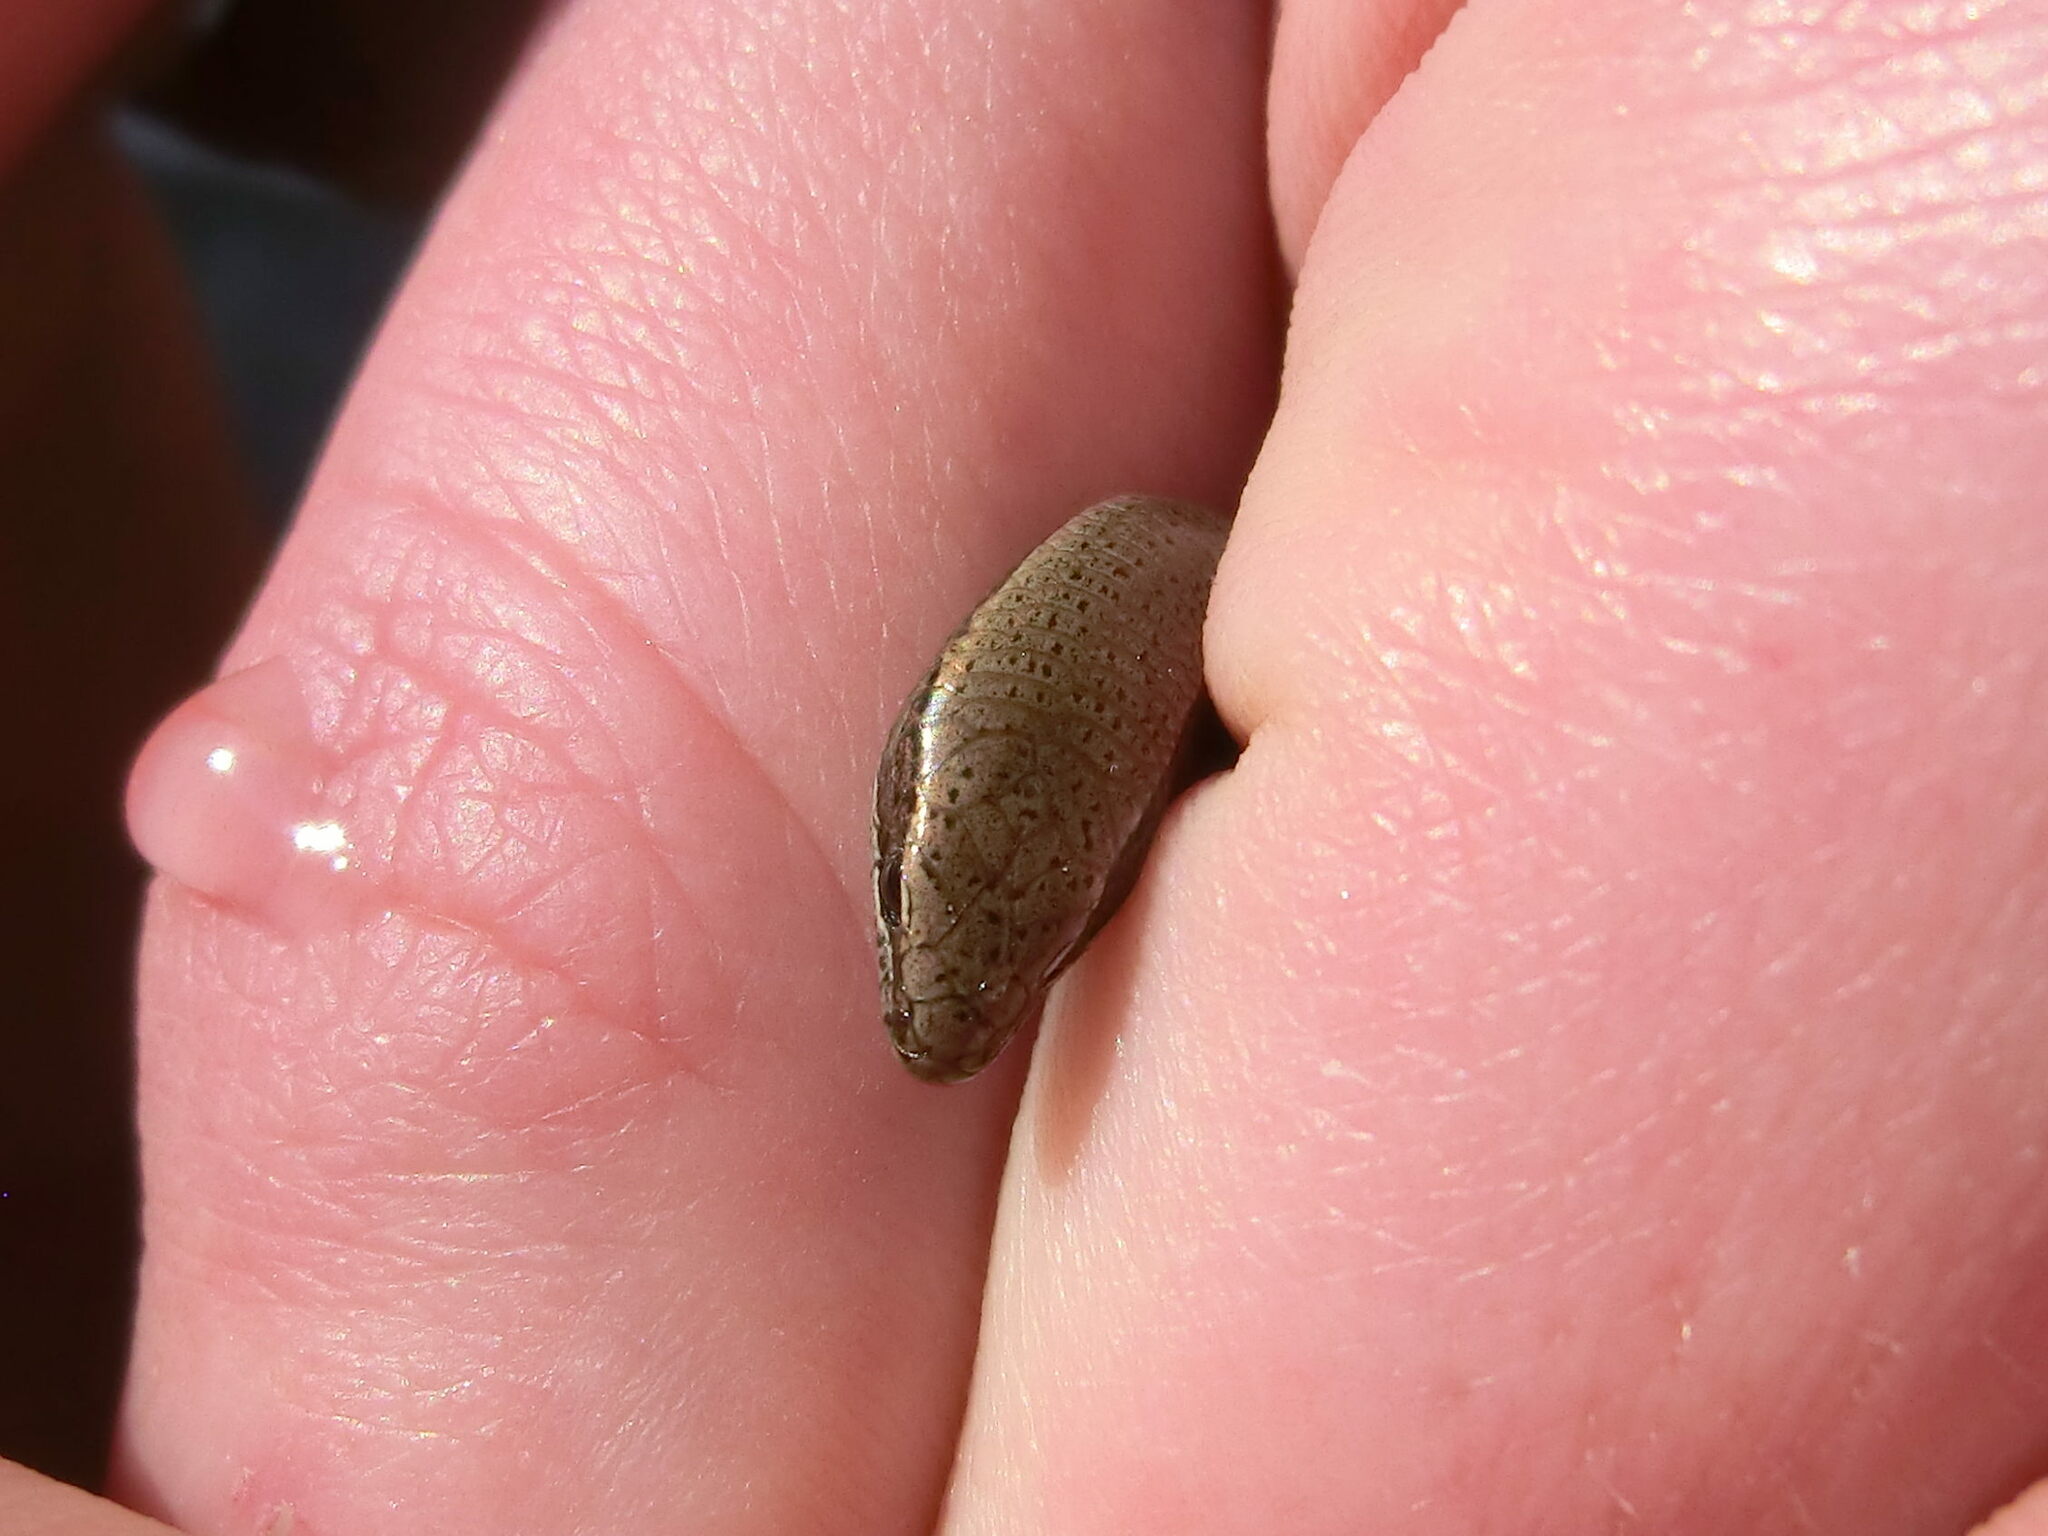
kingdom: Animalia
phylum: Chordata
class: Squamata
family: Scincidae
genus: Ablepharus
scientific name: Ablepharus budaki
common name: Budak’s snake-eyed skink
